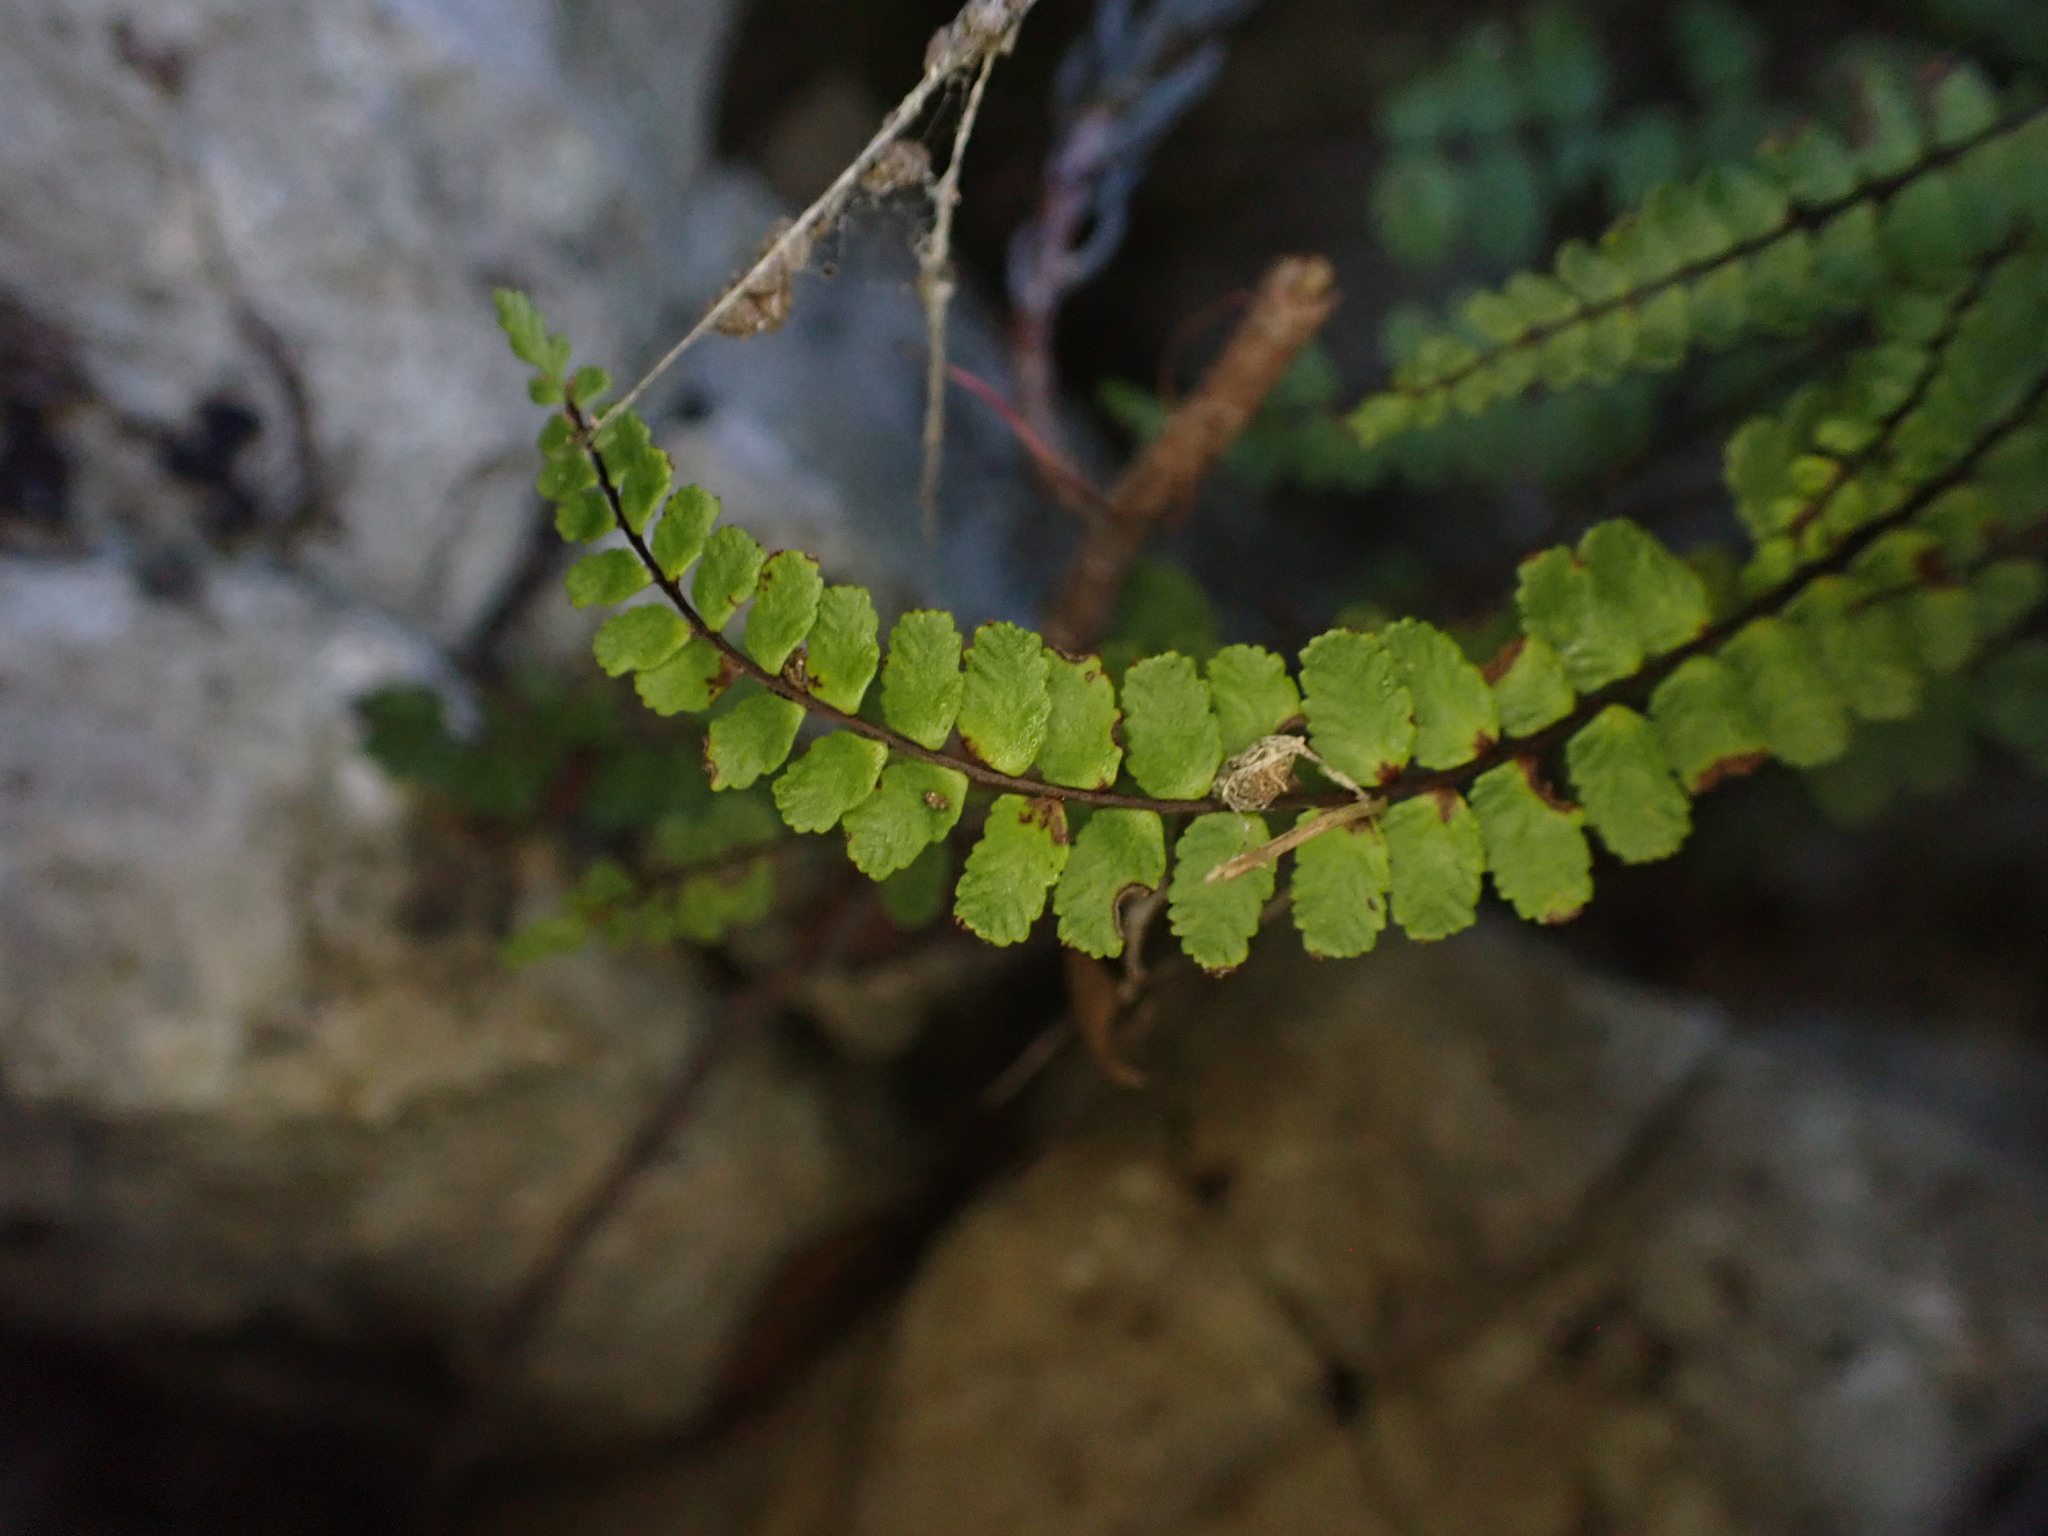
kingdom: Plantae
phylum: Tracheophyta
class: Polypodiopsida
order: Polypodiales
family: Aspleniaceae
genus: Asplenium
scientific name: Asplenium trichomanes
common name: Maidenhair spleenwort
